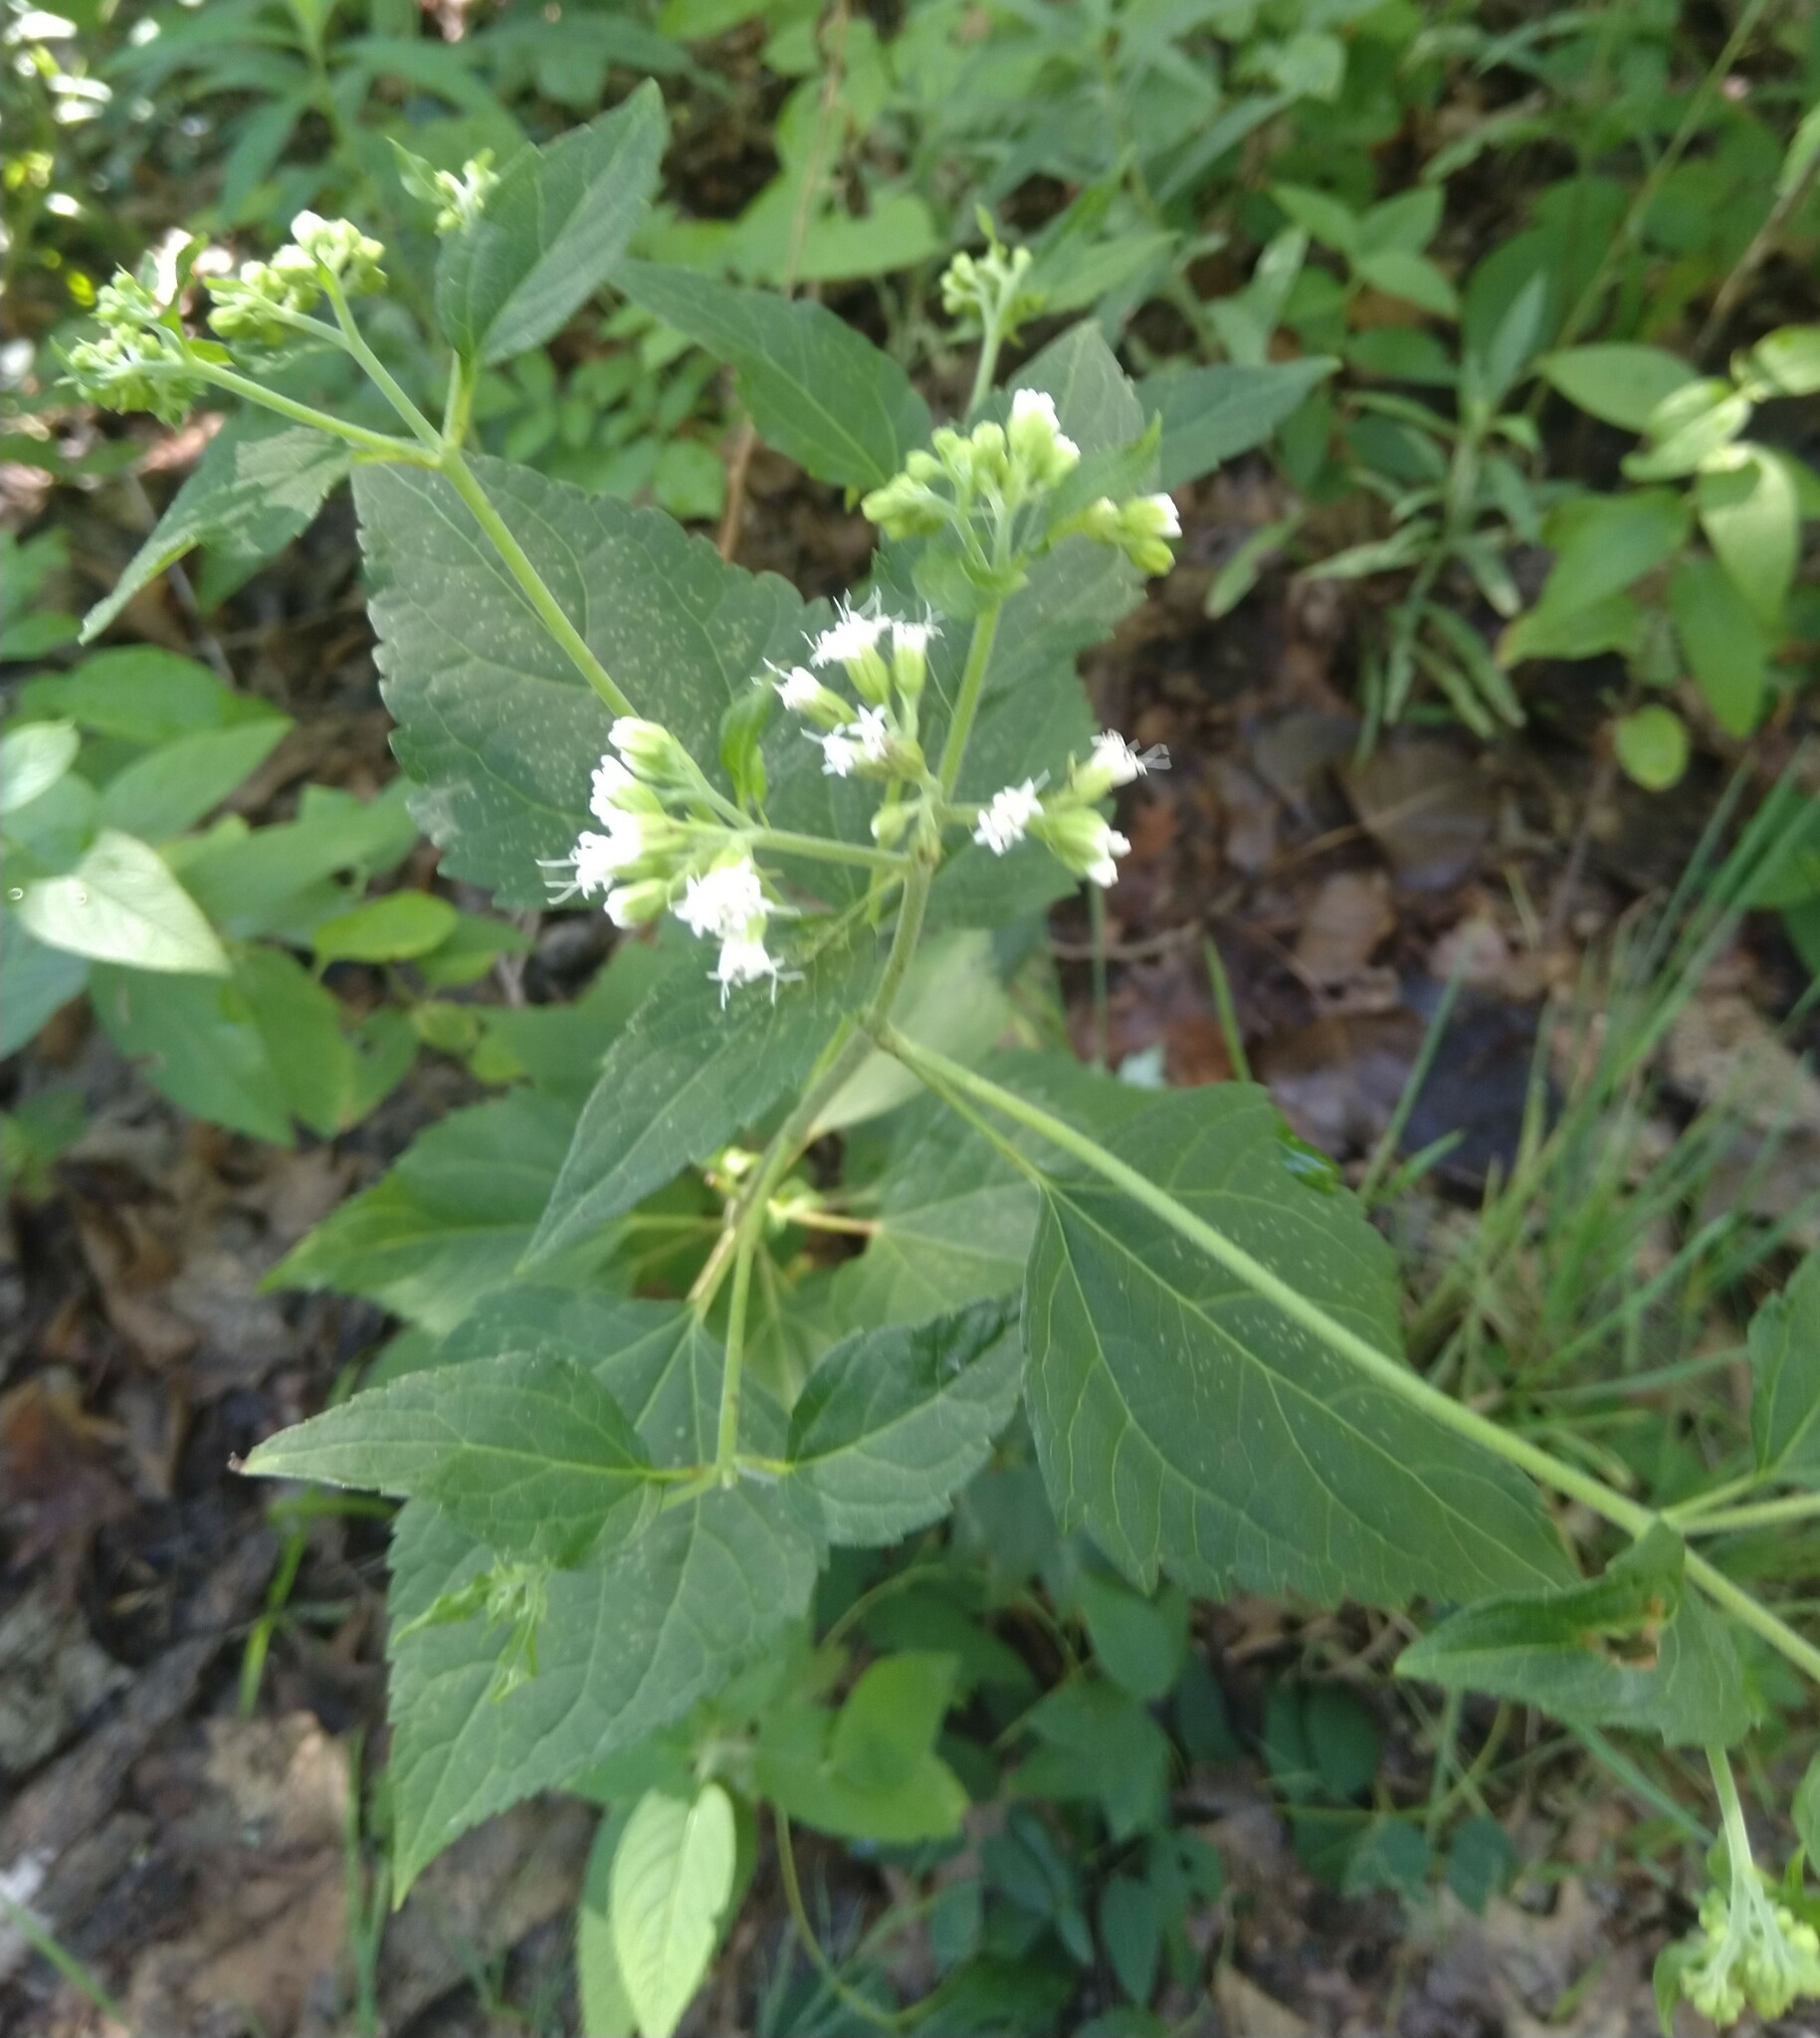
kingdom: Plantae
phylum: Tracheophyta
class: Magnoliopsida
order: Asterales
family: Asteraceae
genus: Ageratina
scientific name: Ageratina altissima
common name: White snakeroot
